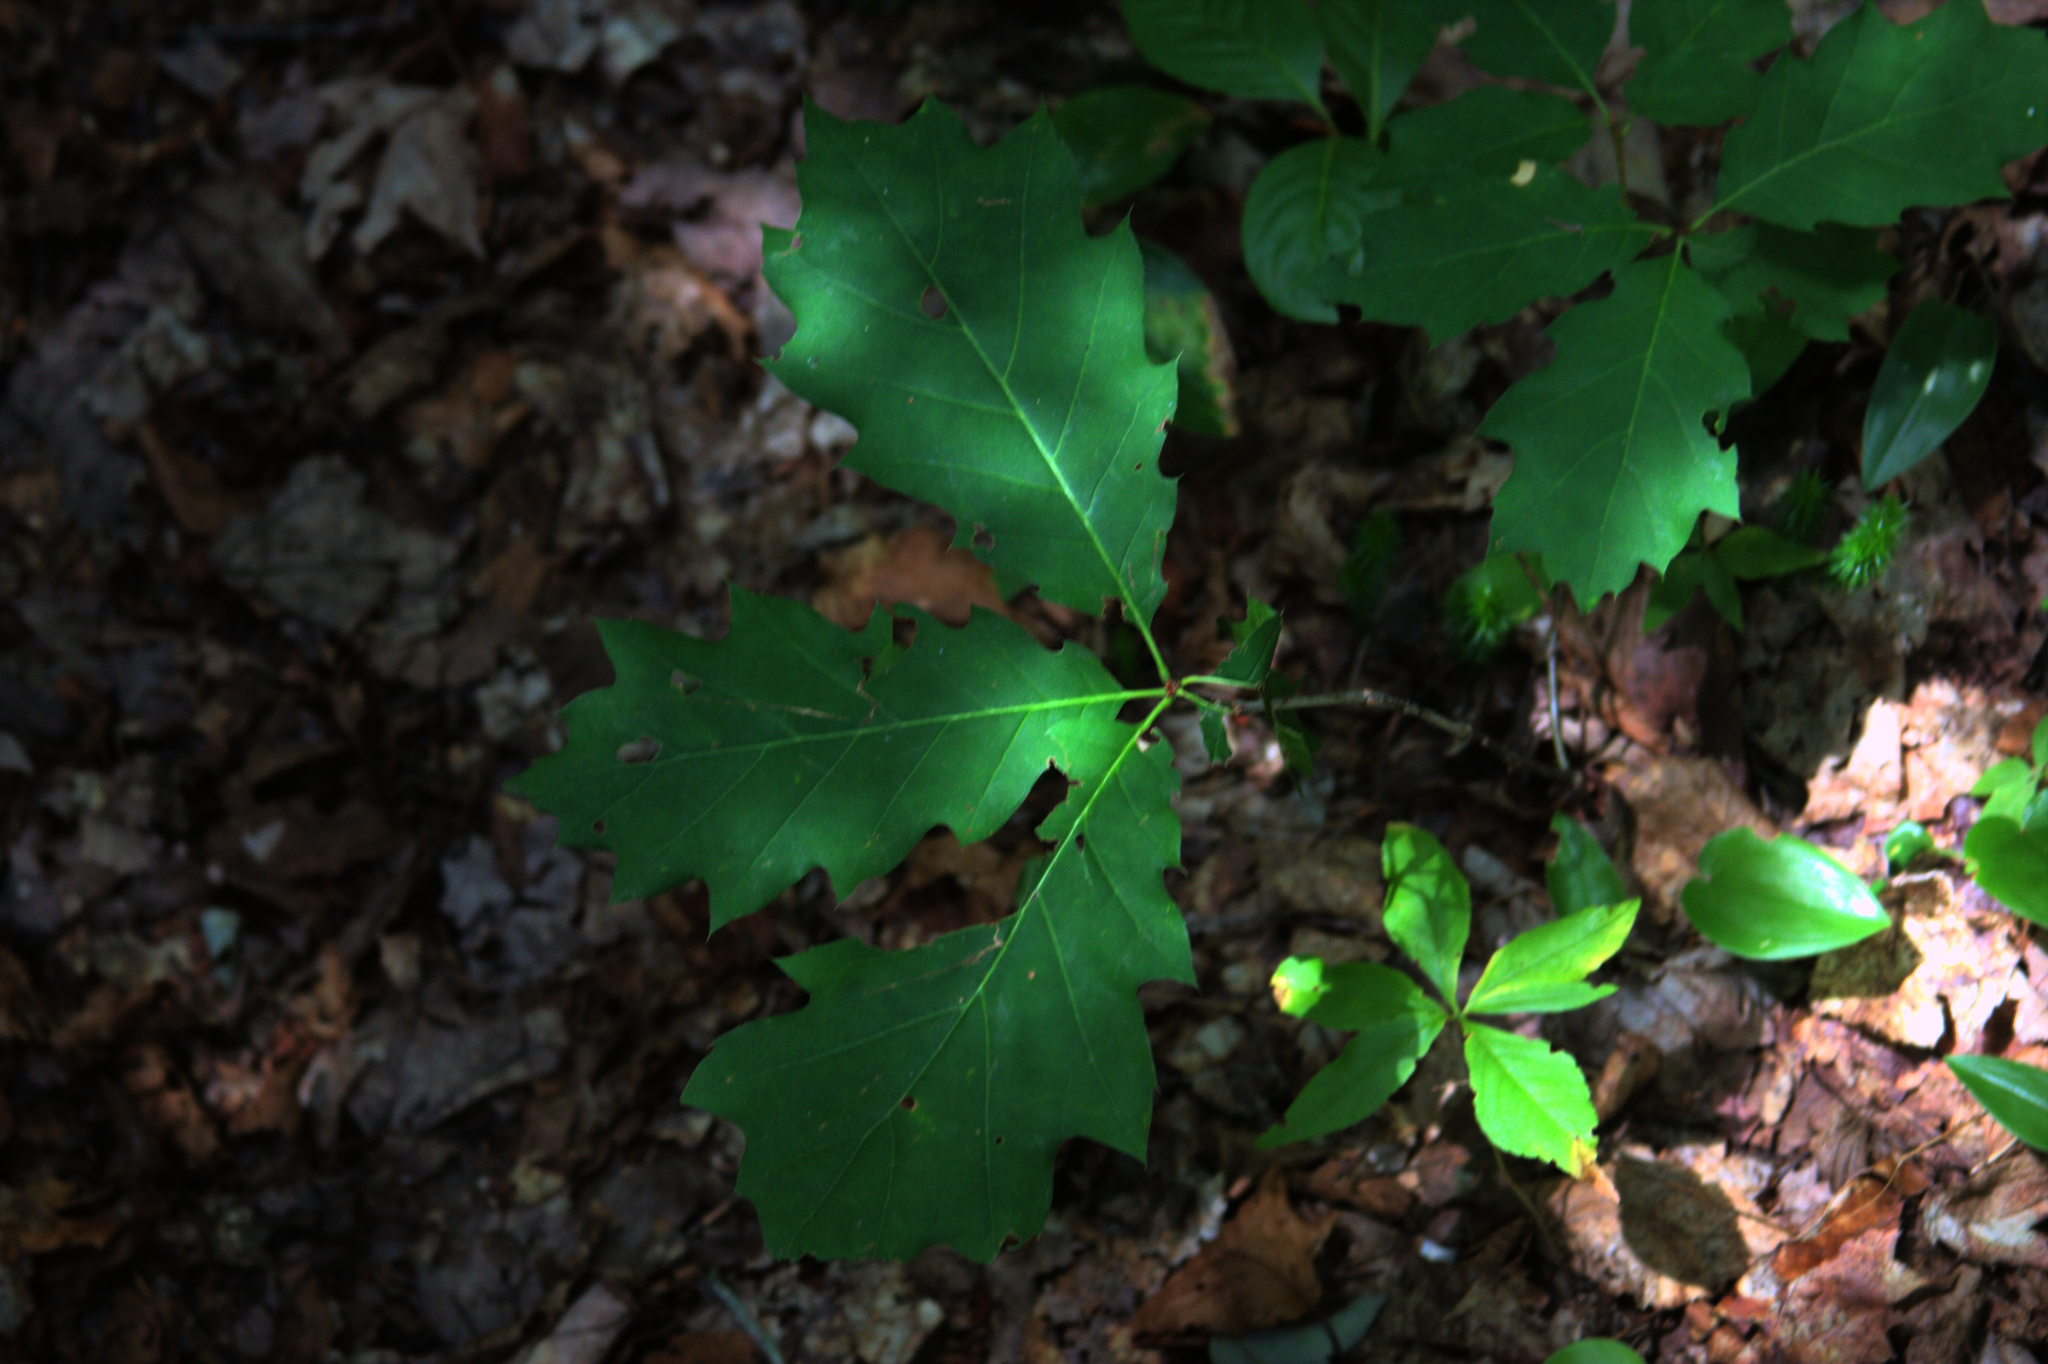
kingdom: Plantae
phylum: Tracheophyta
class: Magnoliopsida
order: Ericales
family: Primulaceae
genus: Lysimachia
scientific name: Lysimachia borealis
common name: American starflower
